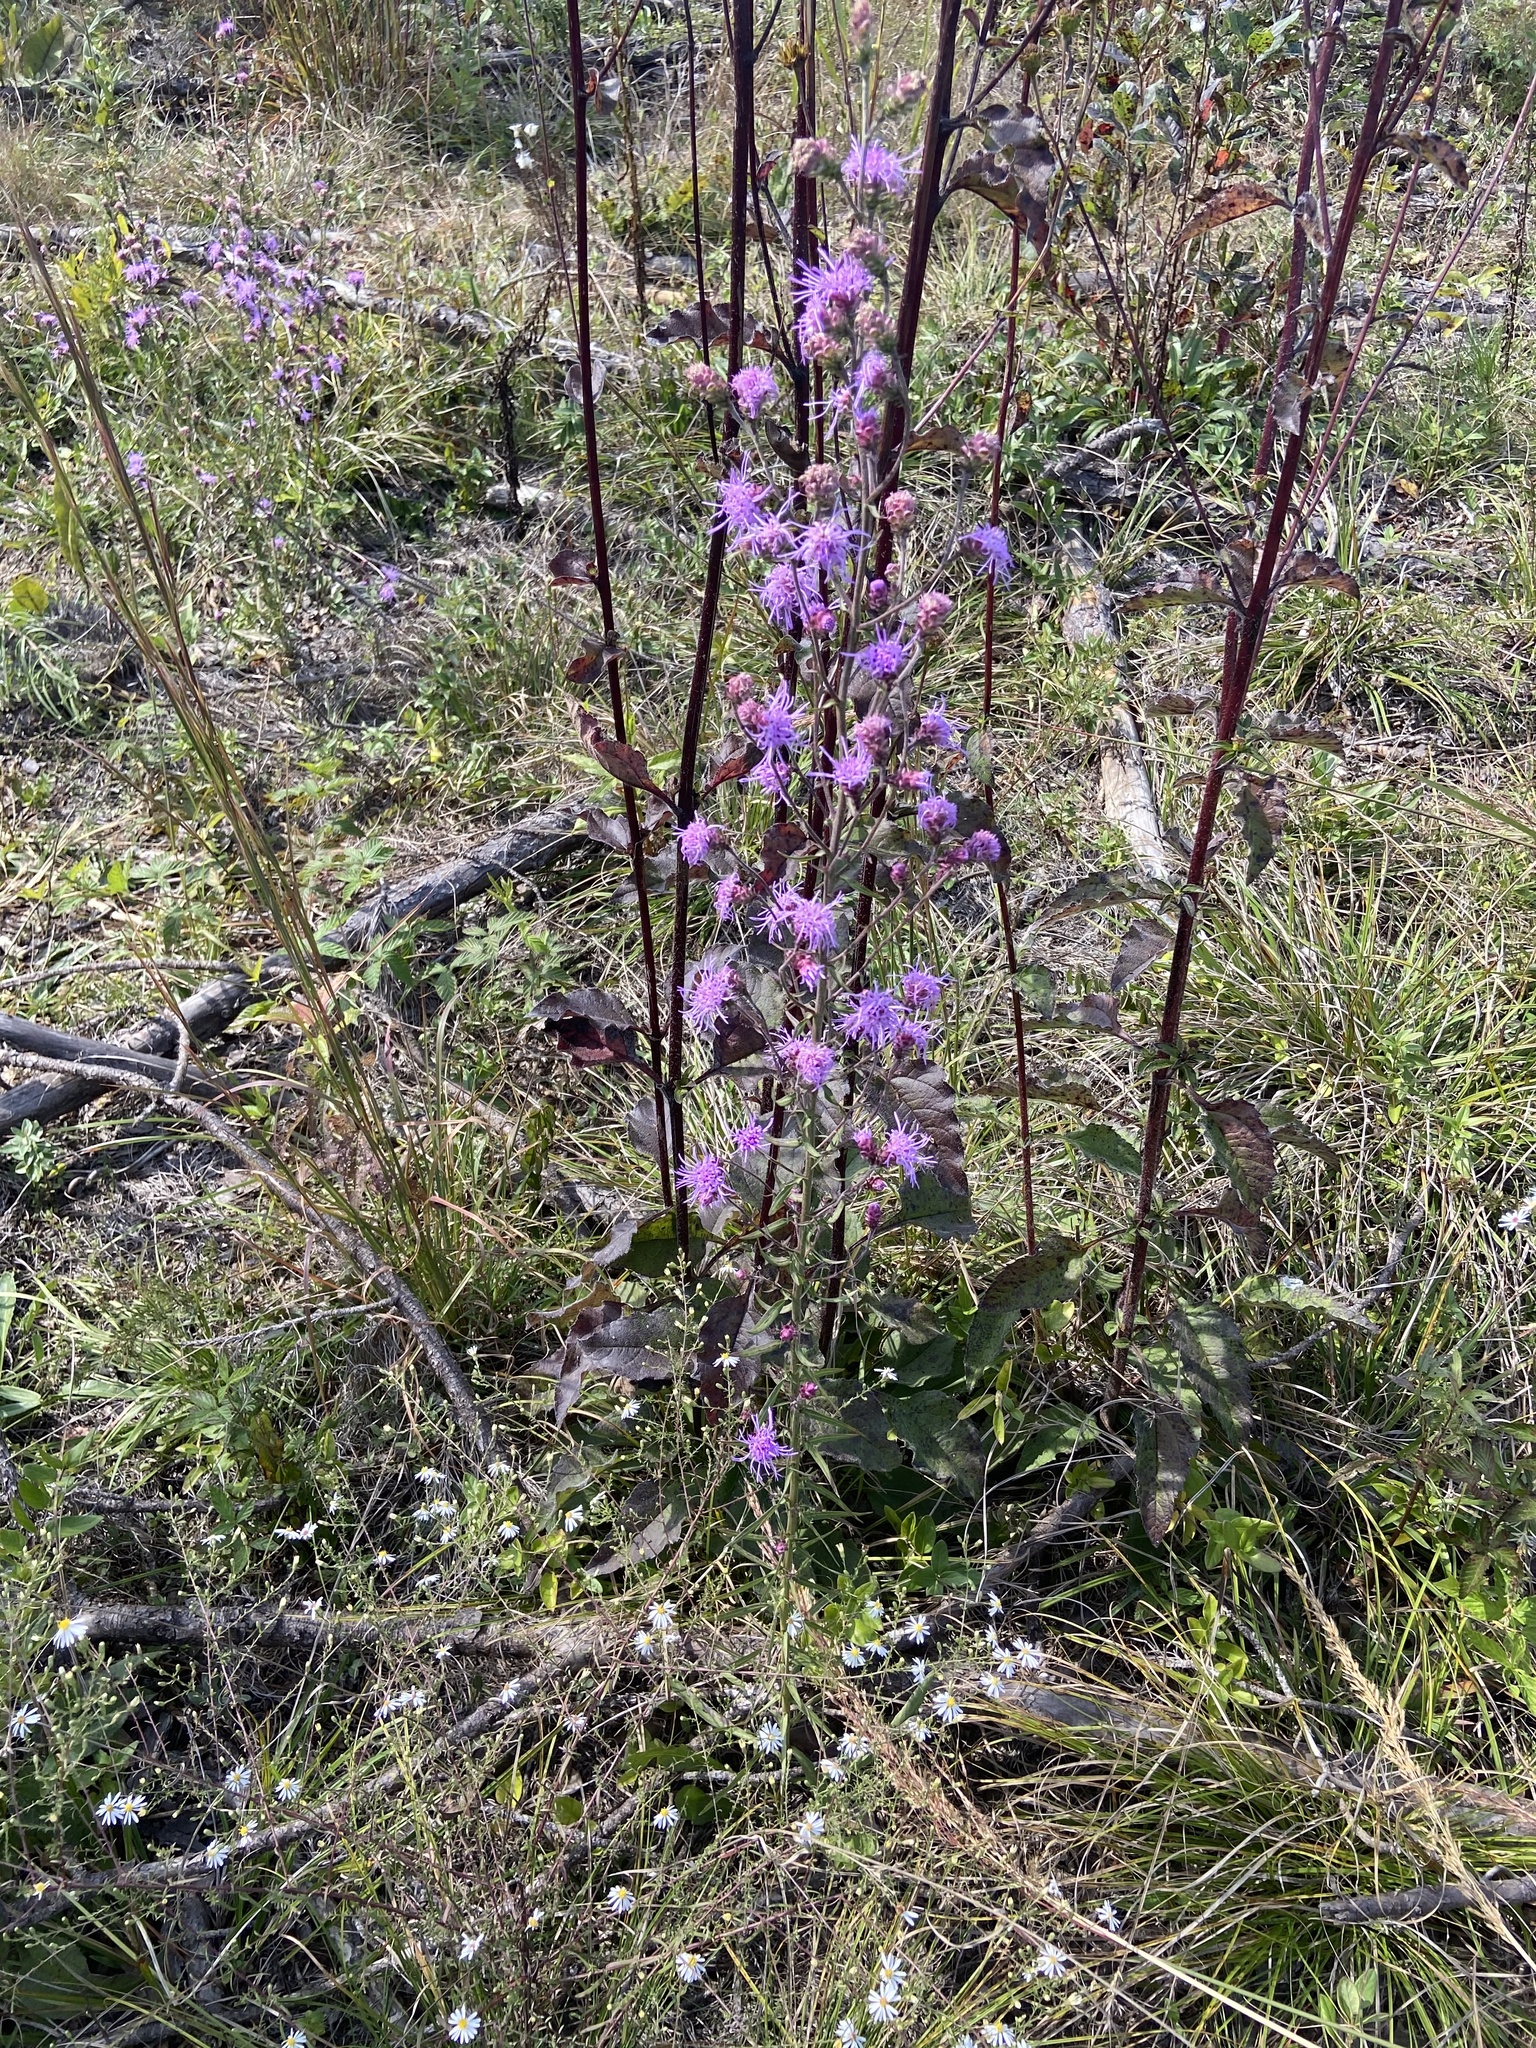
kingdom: Plantae
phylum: Tracheophyta
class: Magnoliopsida
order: Asterales
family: Asteraceae
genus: Liatris
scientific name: Liatris aspera
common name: Lacerate blazing-star
